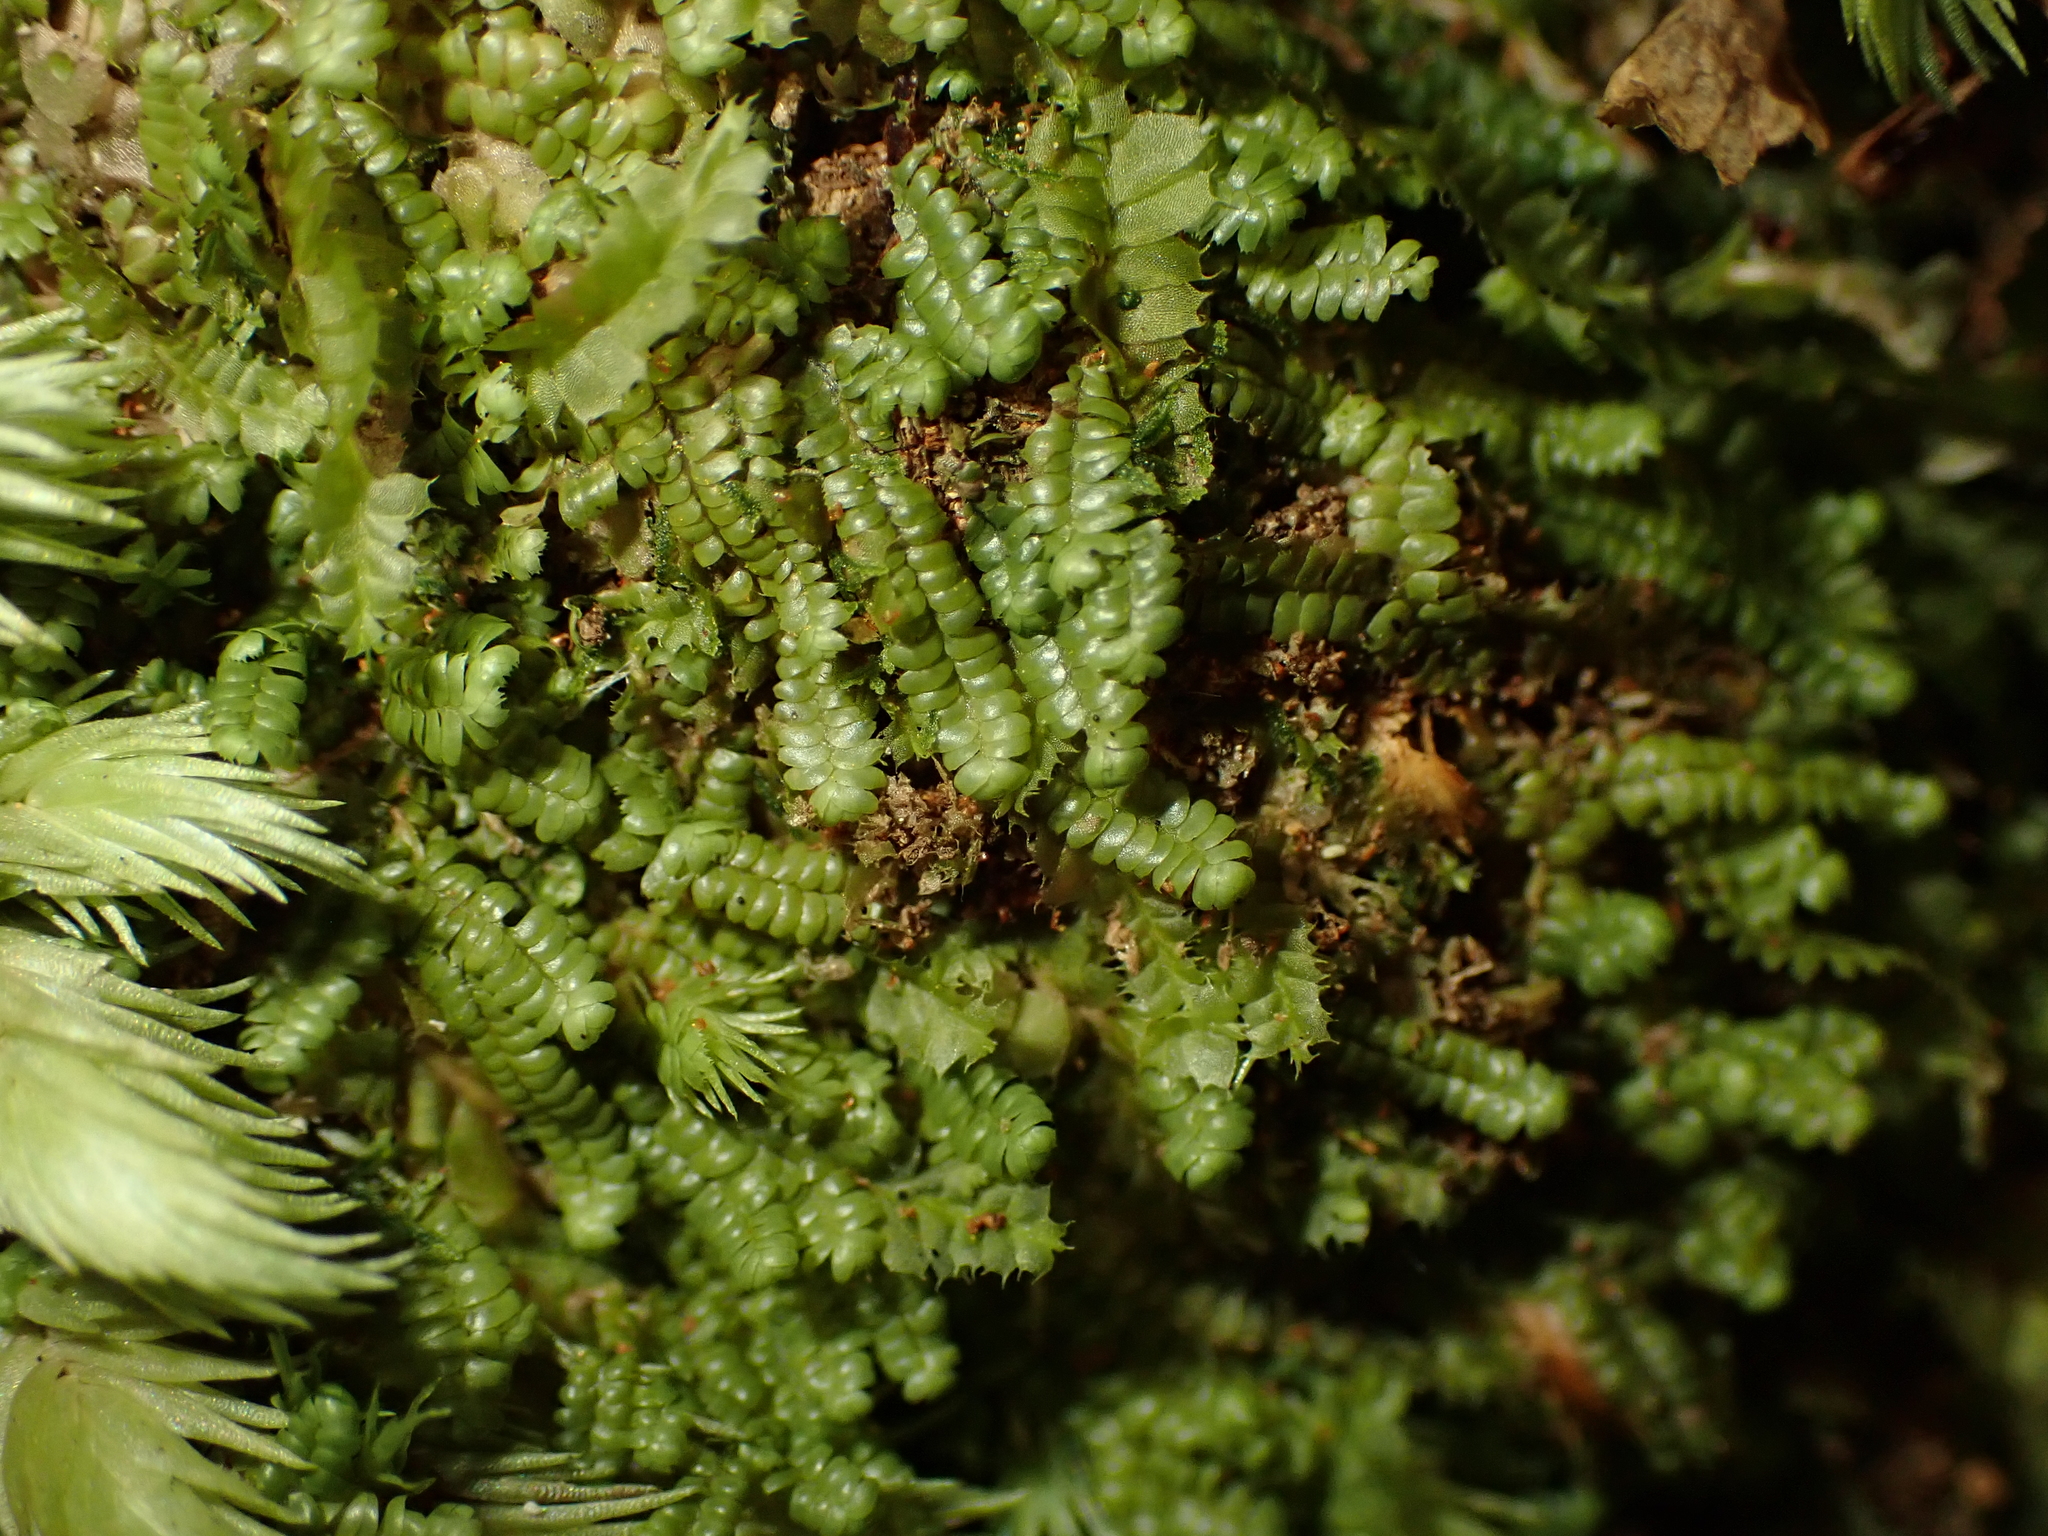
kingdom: Plantae
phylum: Marchantiophyta
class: Jungermanniopsida
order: Jungermanniales
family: Lepidoziaceae
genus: Bazzania
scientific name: Bazzania tayloriana
